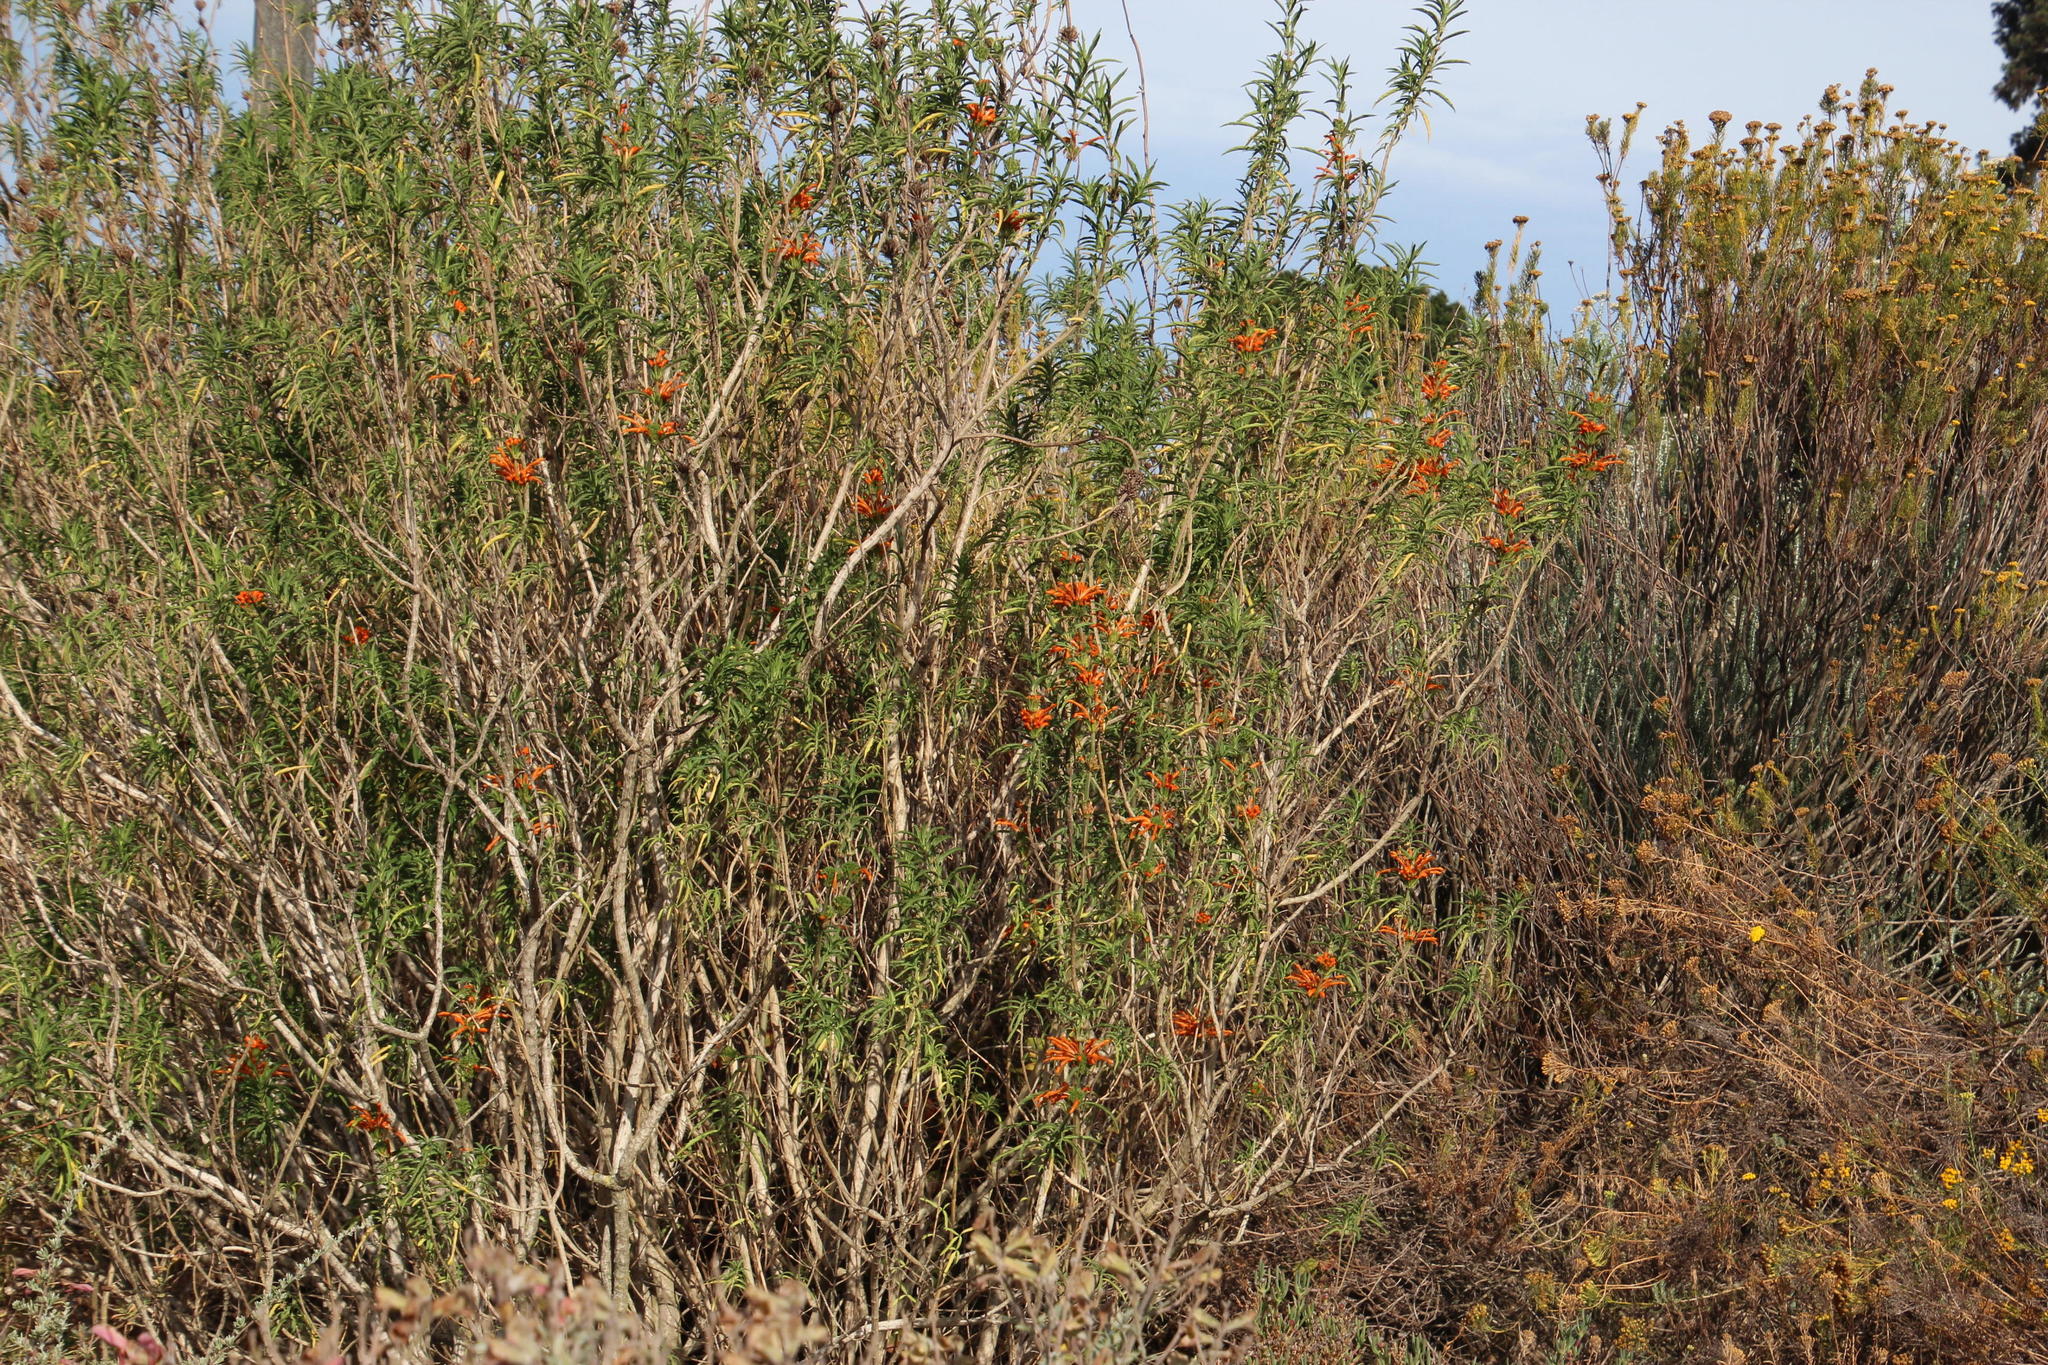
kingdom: Plantae
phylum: Tracheophyta
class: Magnoliopsida
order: Lamiales
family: Lamiaceae
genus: Leonotis
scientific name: Leonotis leonurus
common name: Lion's ear
